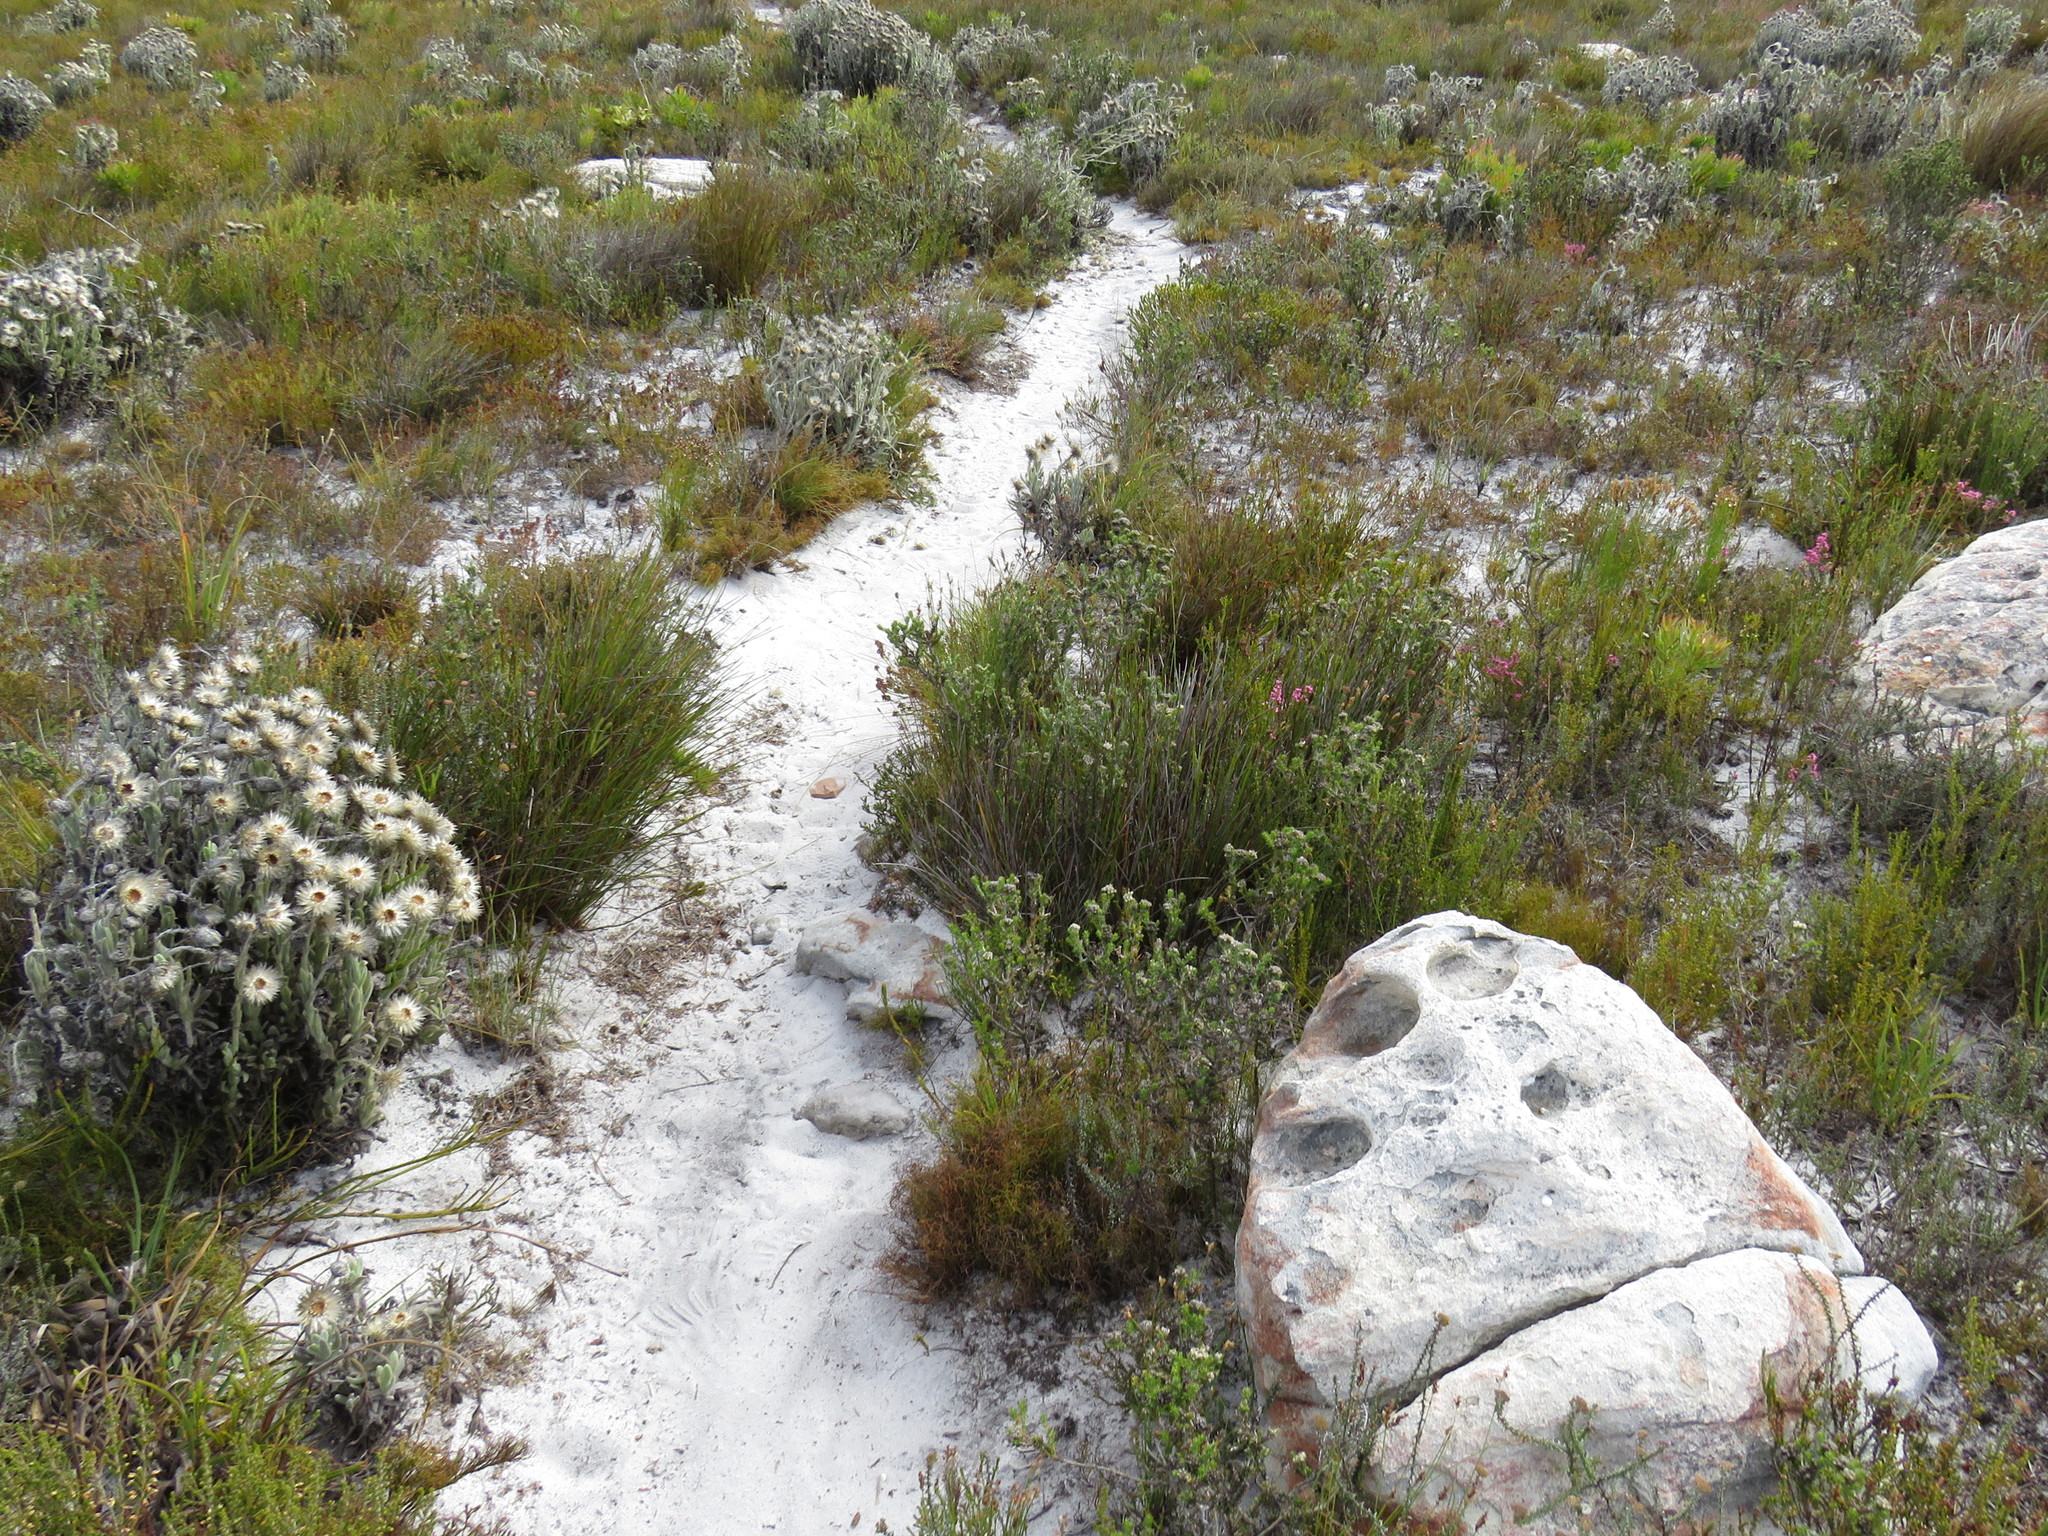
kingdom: Plantae
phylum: Tracheophyta
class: Magnoliopsida
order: Asterales
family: Asteraceae
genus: Metalasia
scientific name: Metalasia compacta
